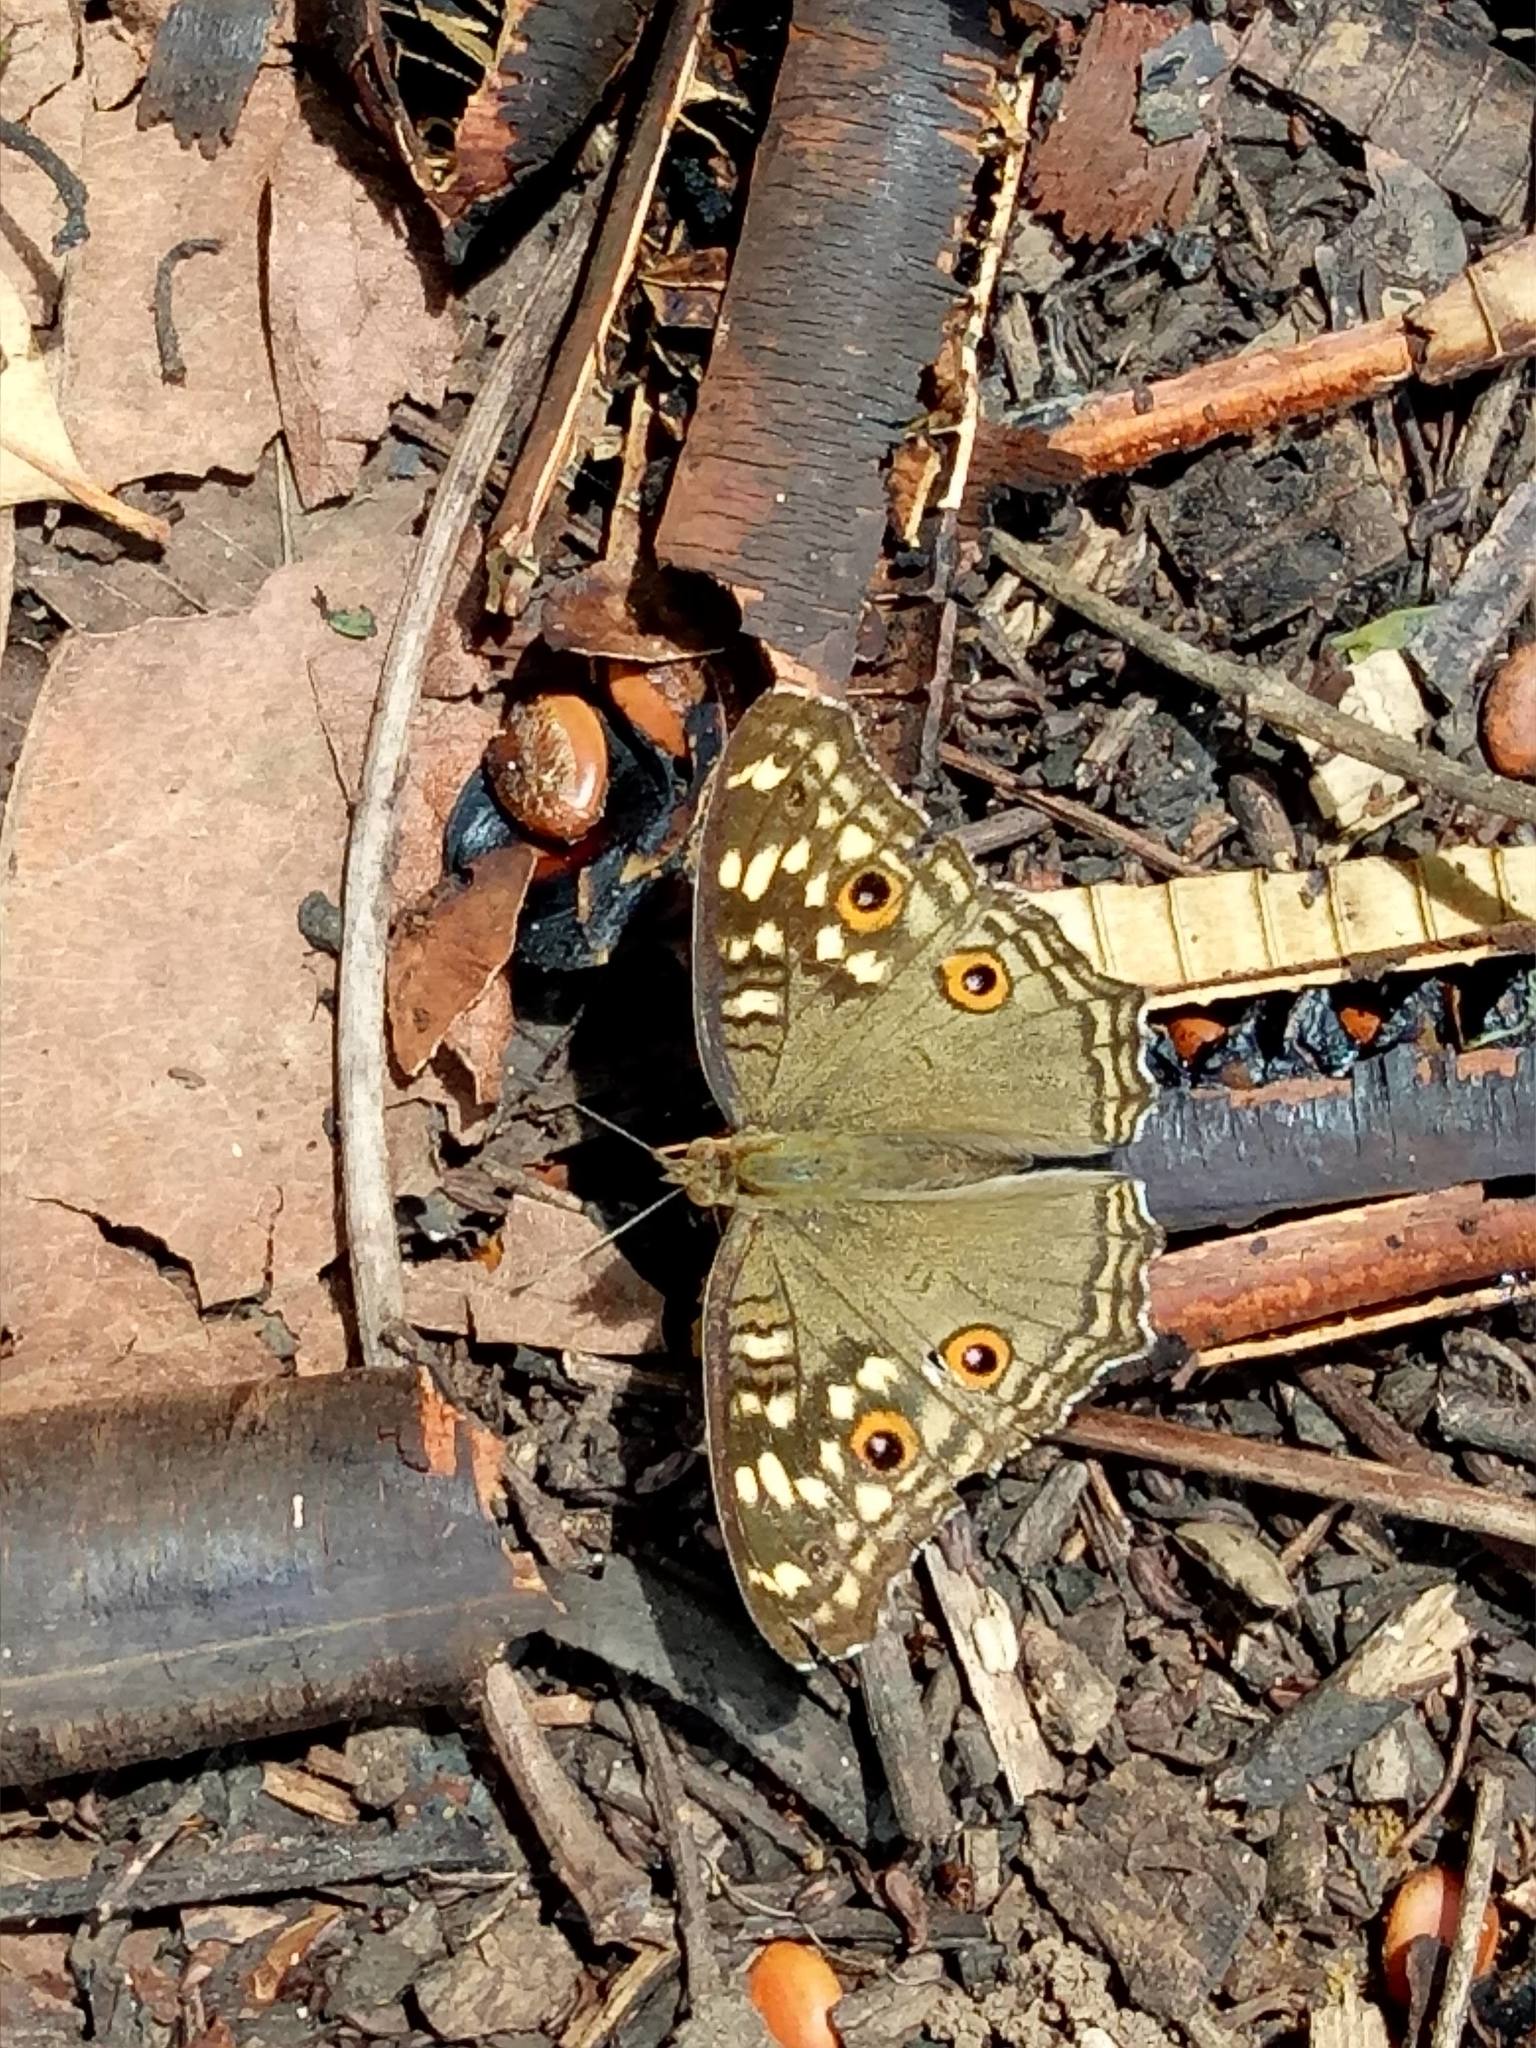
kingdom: Animalia
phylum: Arthropoda
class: Insecta
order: Lepidoptera
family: Nymphalidae
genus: Junonia
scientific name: Junonia lemonias
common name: Lemon pansy
